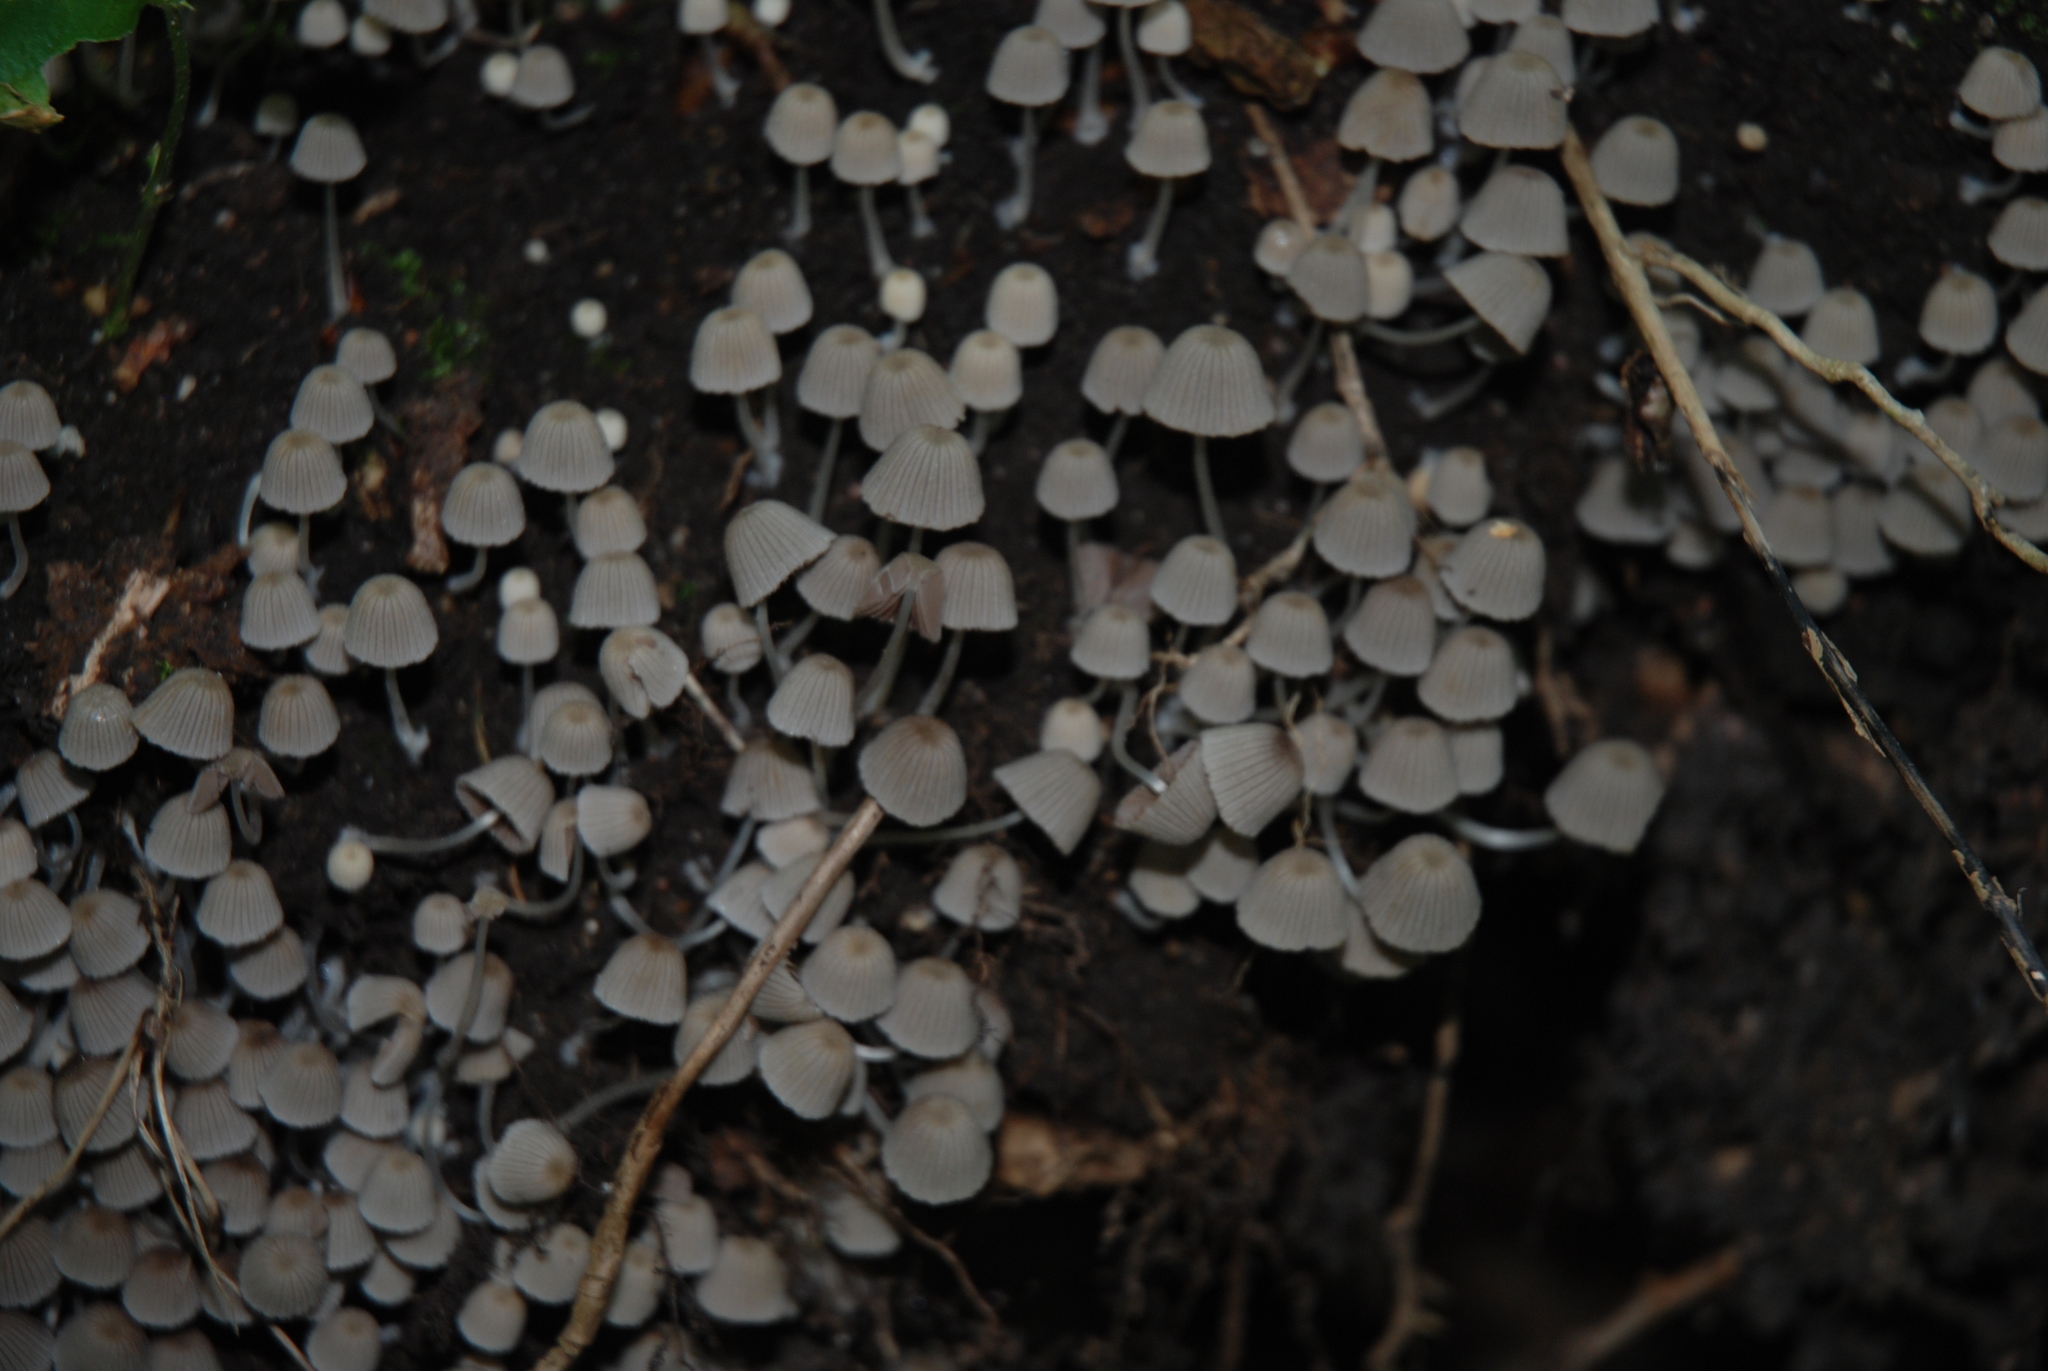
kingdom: Fungi
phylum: Basidiomycota
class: Agaricomycetes
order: Agaricales
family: Psathyrellaceae
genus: Coprinellus
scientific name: Coprinellus disseminatus
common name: Fairies' bonnets
